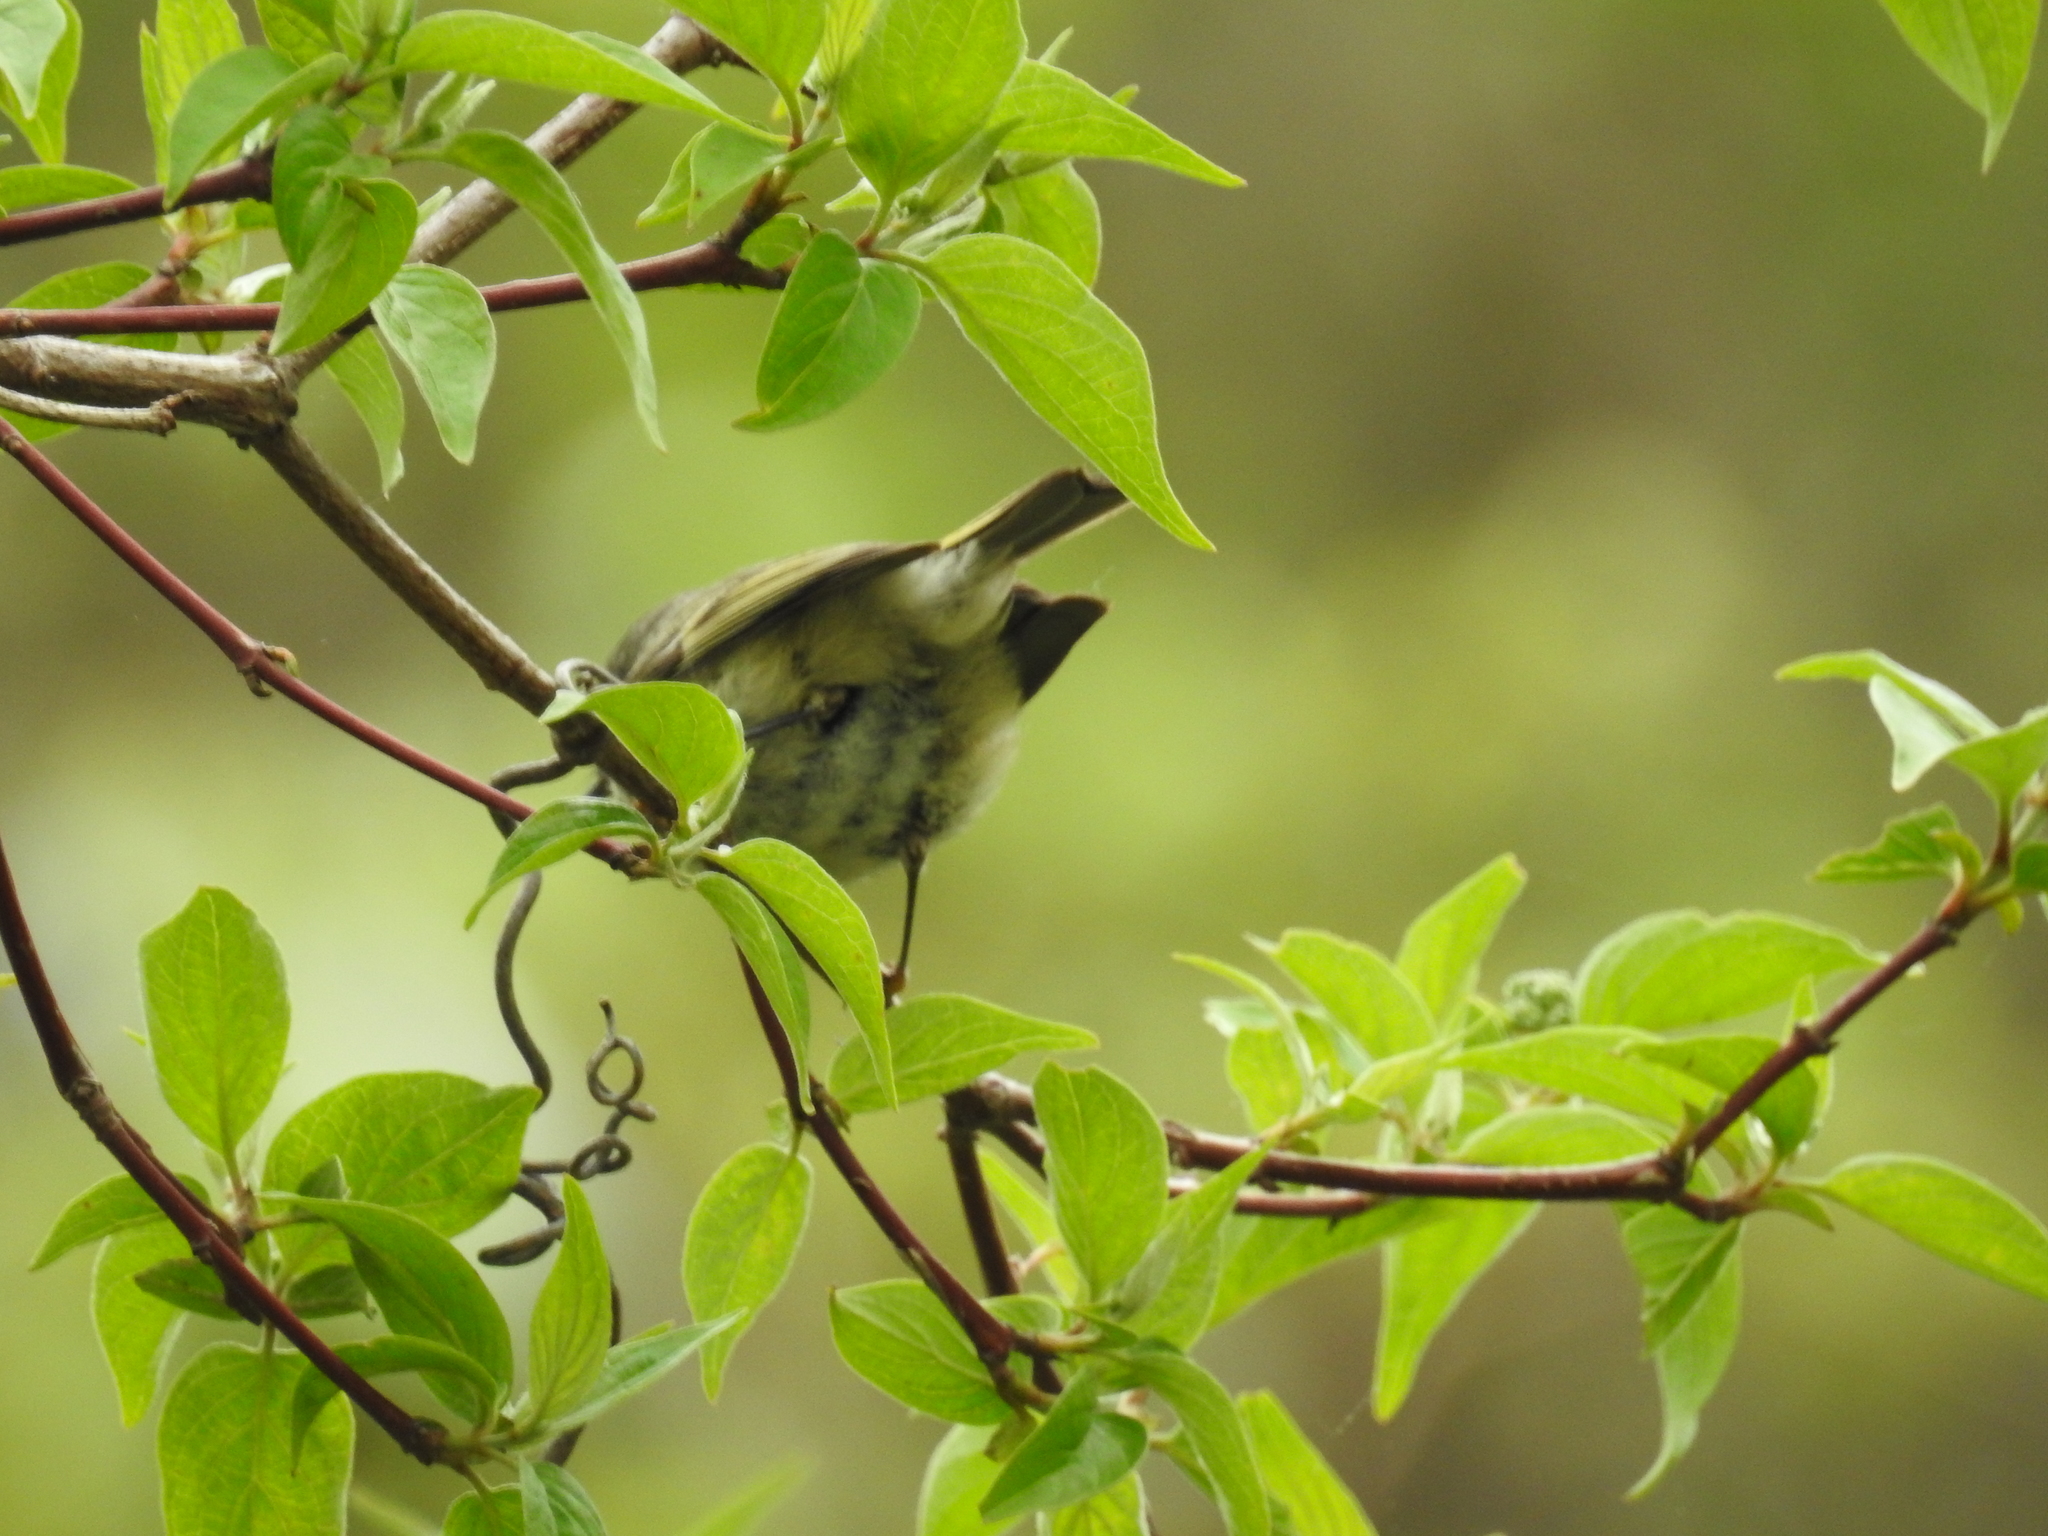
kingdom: Animalia
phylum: Chordata
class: Aves
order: Passeriformes
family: Regulidae
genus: Regulus
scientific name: Regulus calendula
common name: Ruby-crowned kinglet
